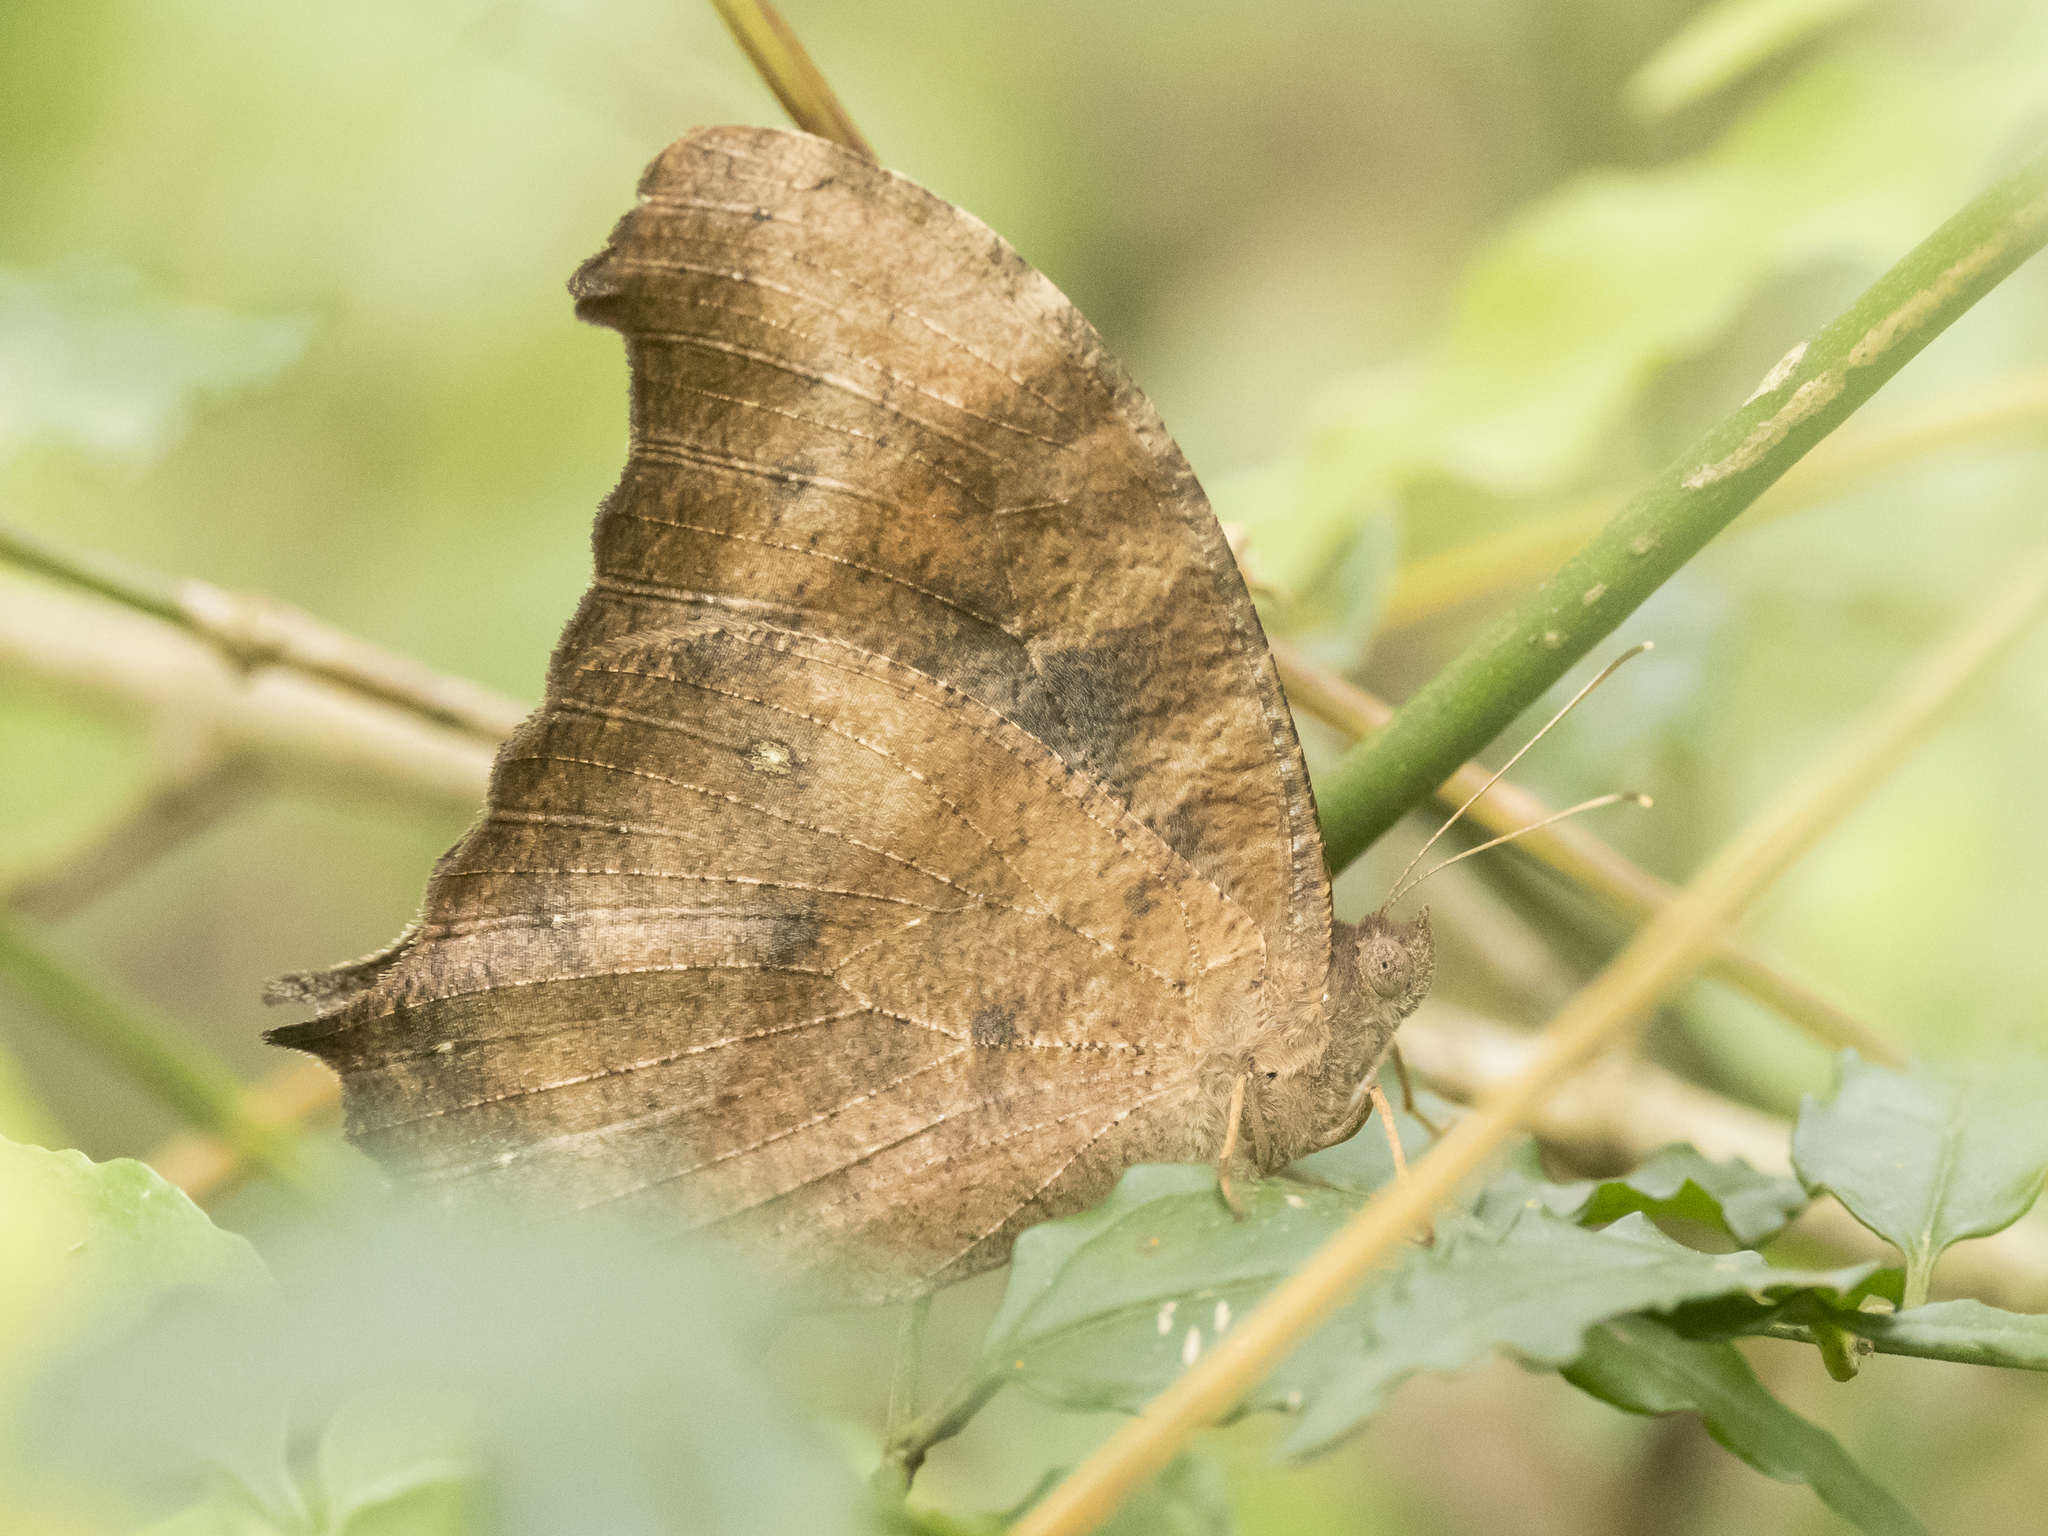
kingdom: Animalia
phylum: Arthropoda
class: Insecta
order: Lepidoptera
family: Nymphalidae
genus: Melanitis
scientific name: Melanitis leda
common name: Twilight brown
